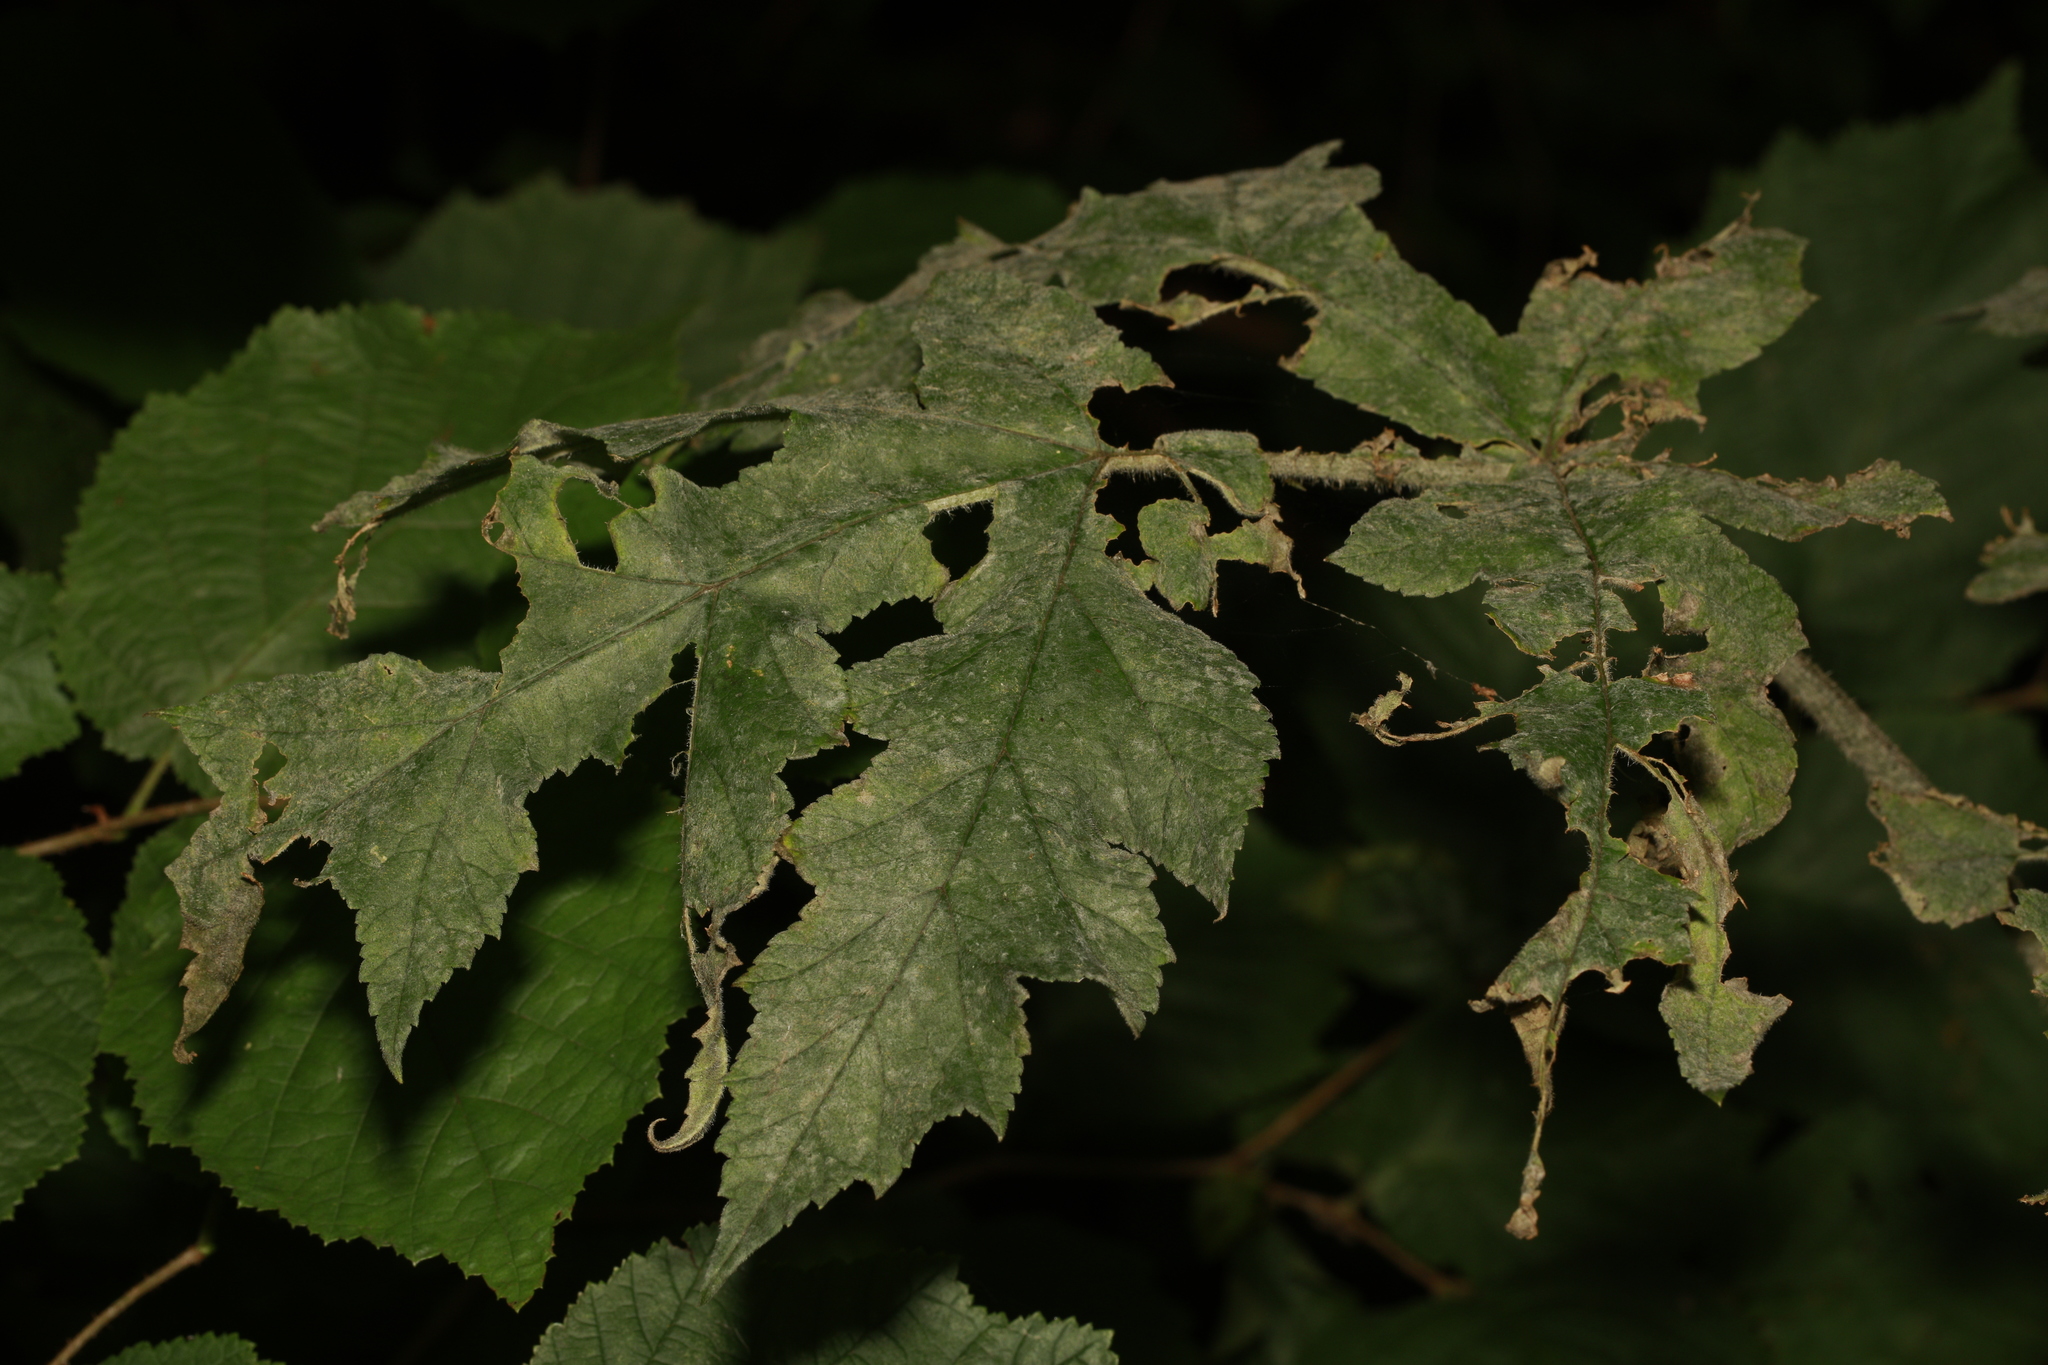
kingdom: Fungi
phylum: Ascomycota
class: Leotiomycetes
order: Helotiales
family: Erysiphaceae
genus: Erysiphe
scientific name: Erysiphe heraclei
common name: Umbellifer mildew
